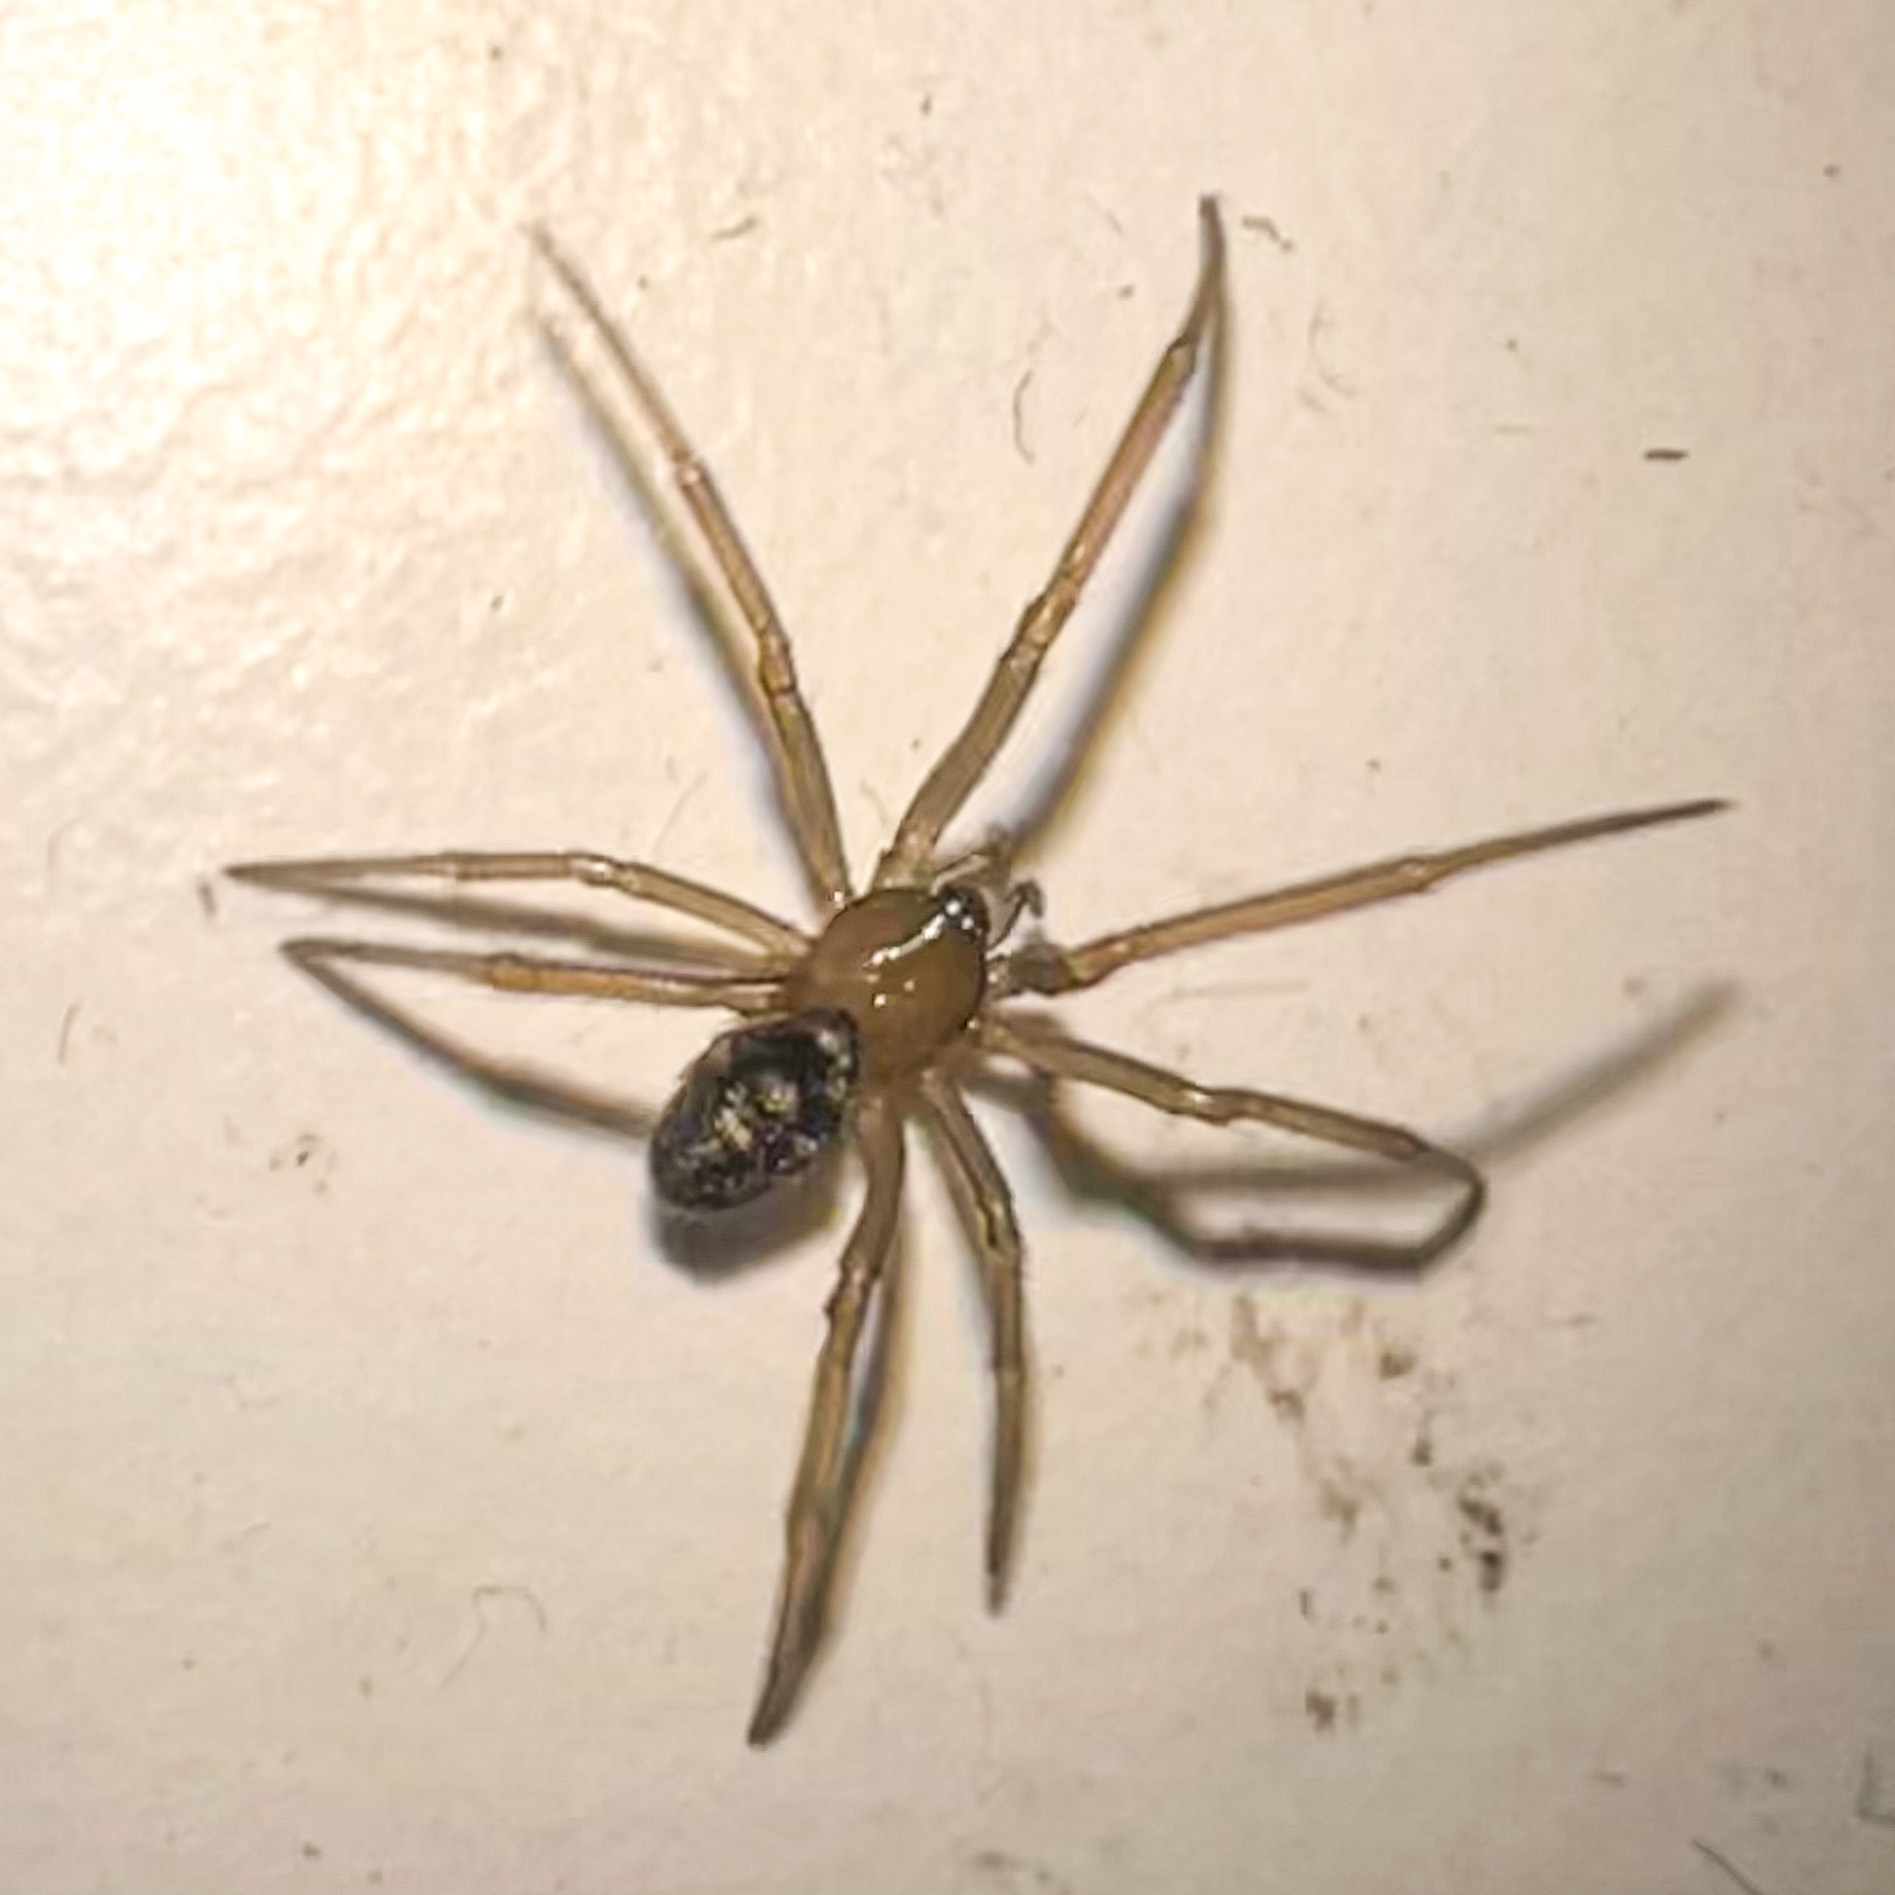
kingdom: Animalia
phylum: Arthropoda
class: Arachnida
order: Araneae
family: Theridiidae
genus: Steatoda
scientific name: Steatoda grossa
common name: False black widow
